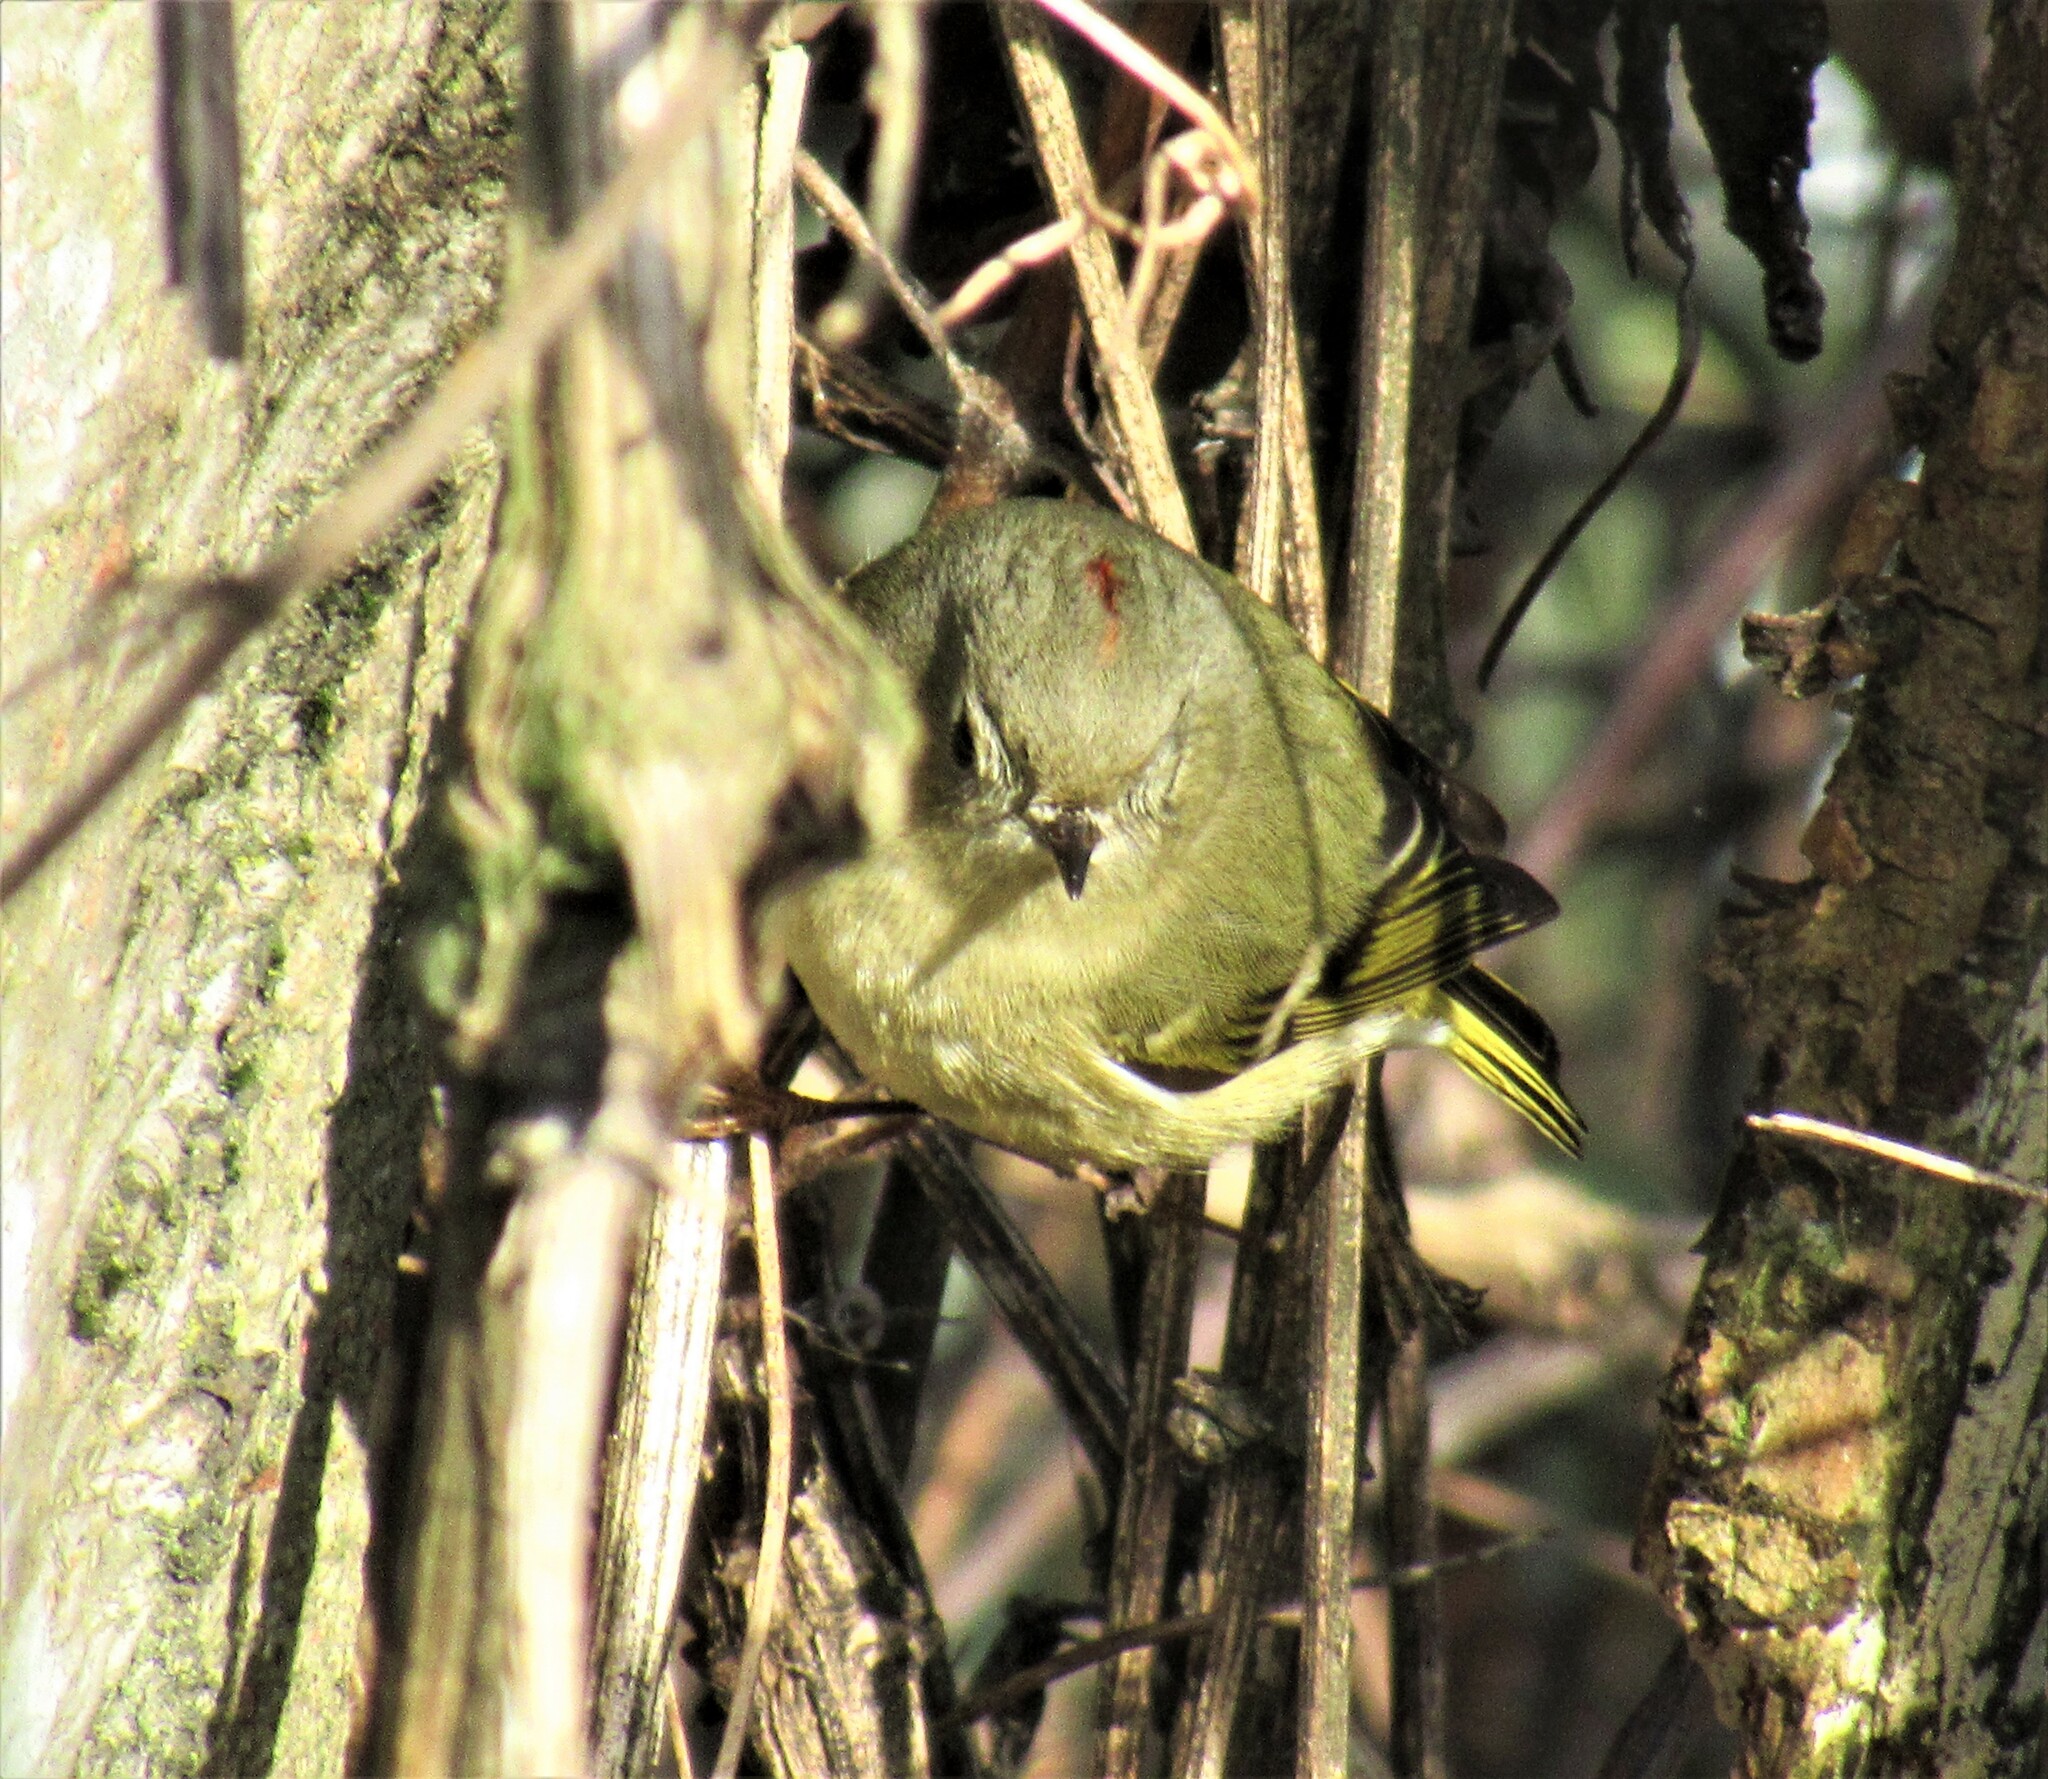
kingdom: Animalia
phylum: Chordata
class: Aves
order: Passeriformes
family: Regulidae
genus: Regulus
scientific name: Regulus calendula
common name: Ruby-crowned kinglet
